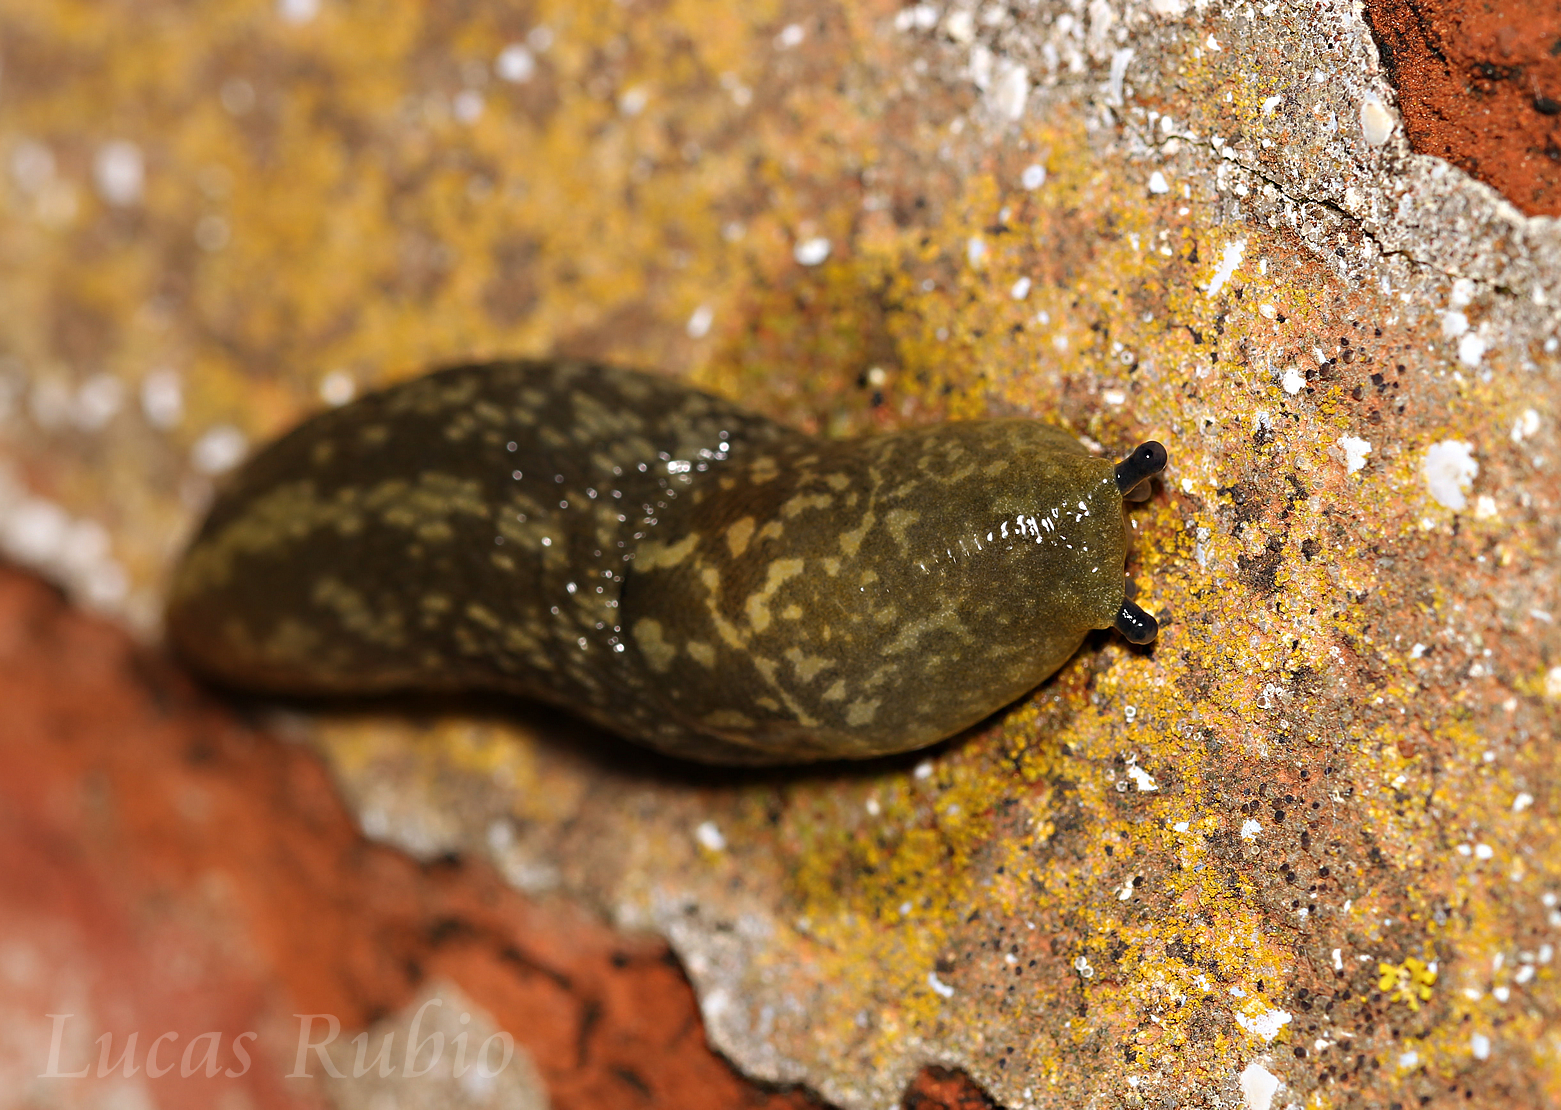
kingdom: Animalia
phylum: Mollusca
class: Gastropoda
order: Stylommatophora
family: Limacidae
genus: Limacus
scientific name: Limacus flavus
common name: Yellow gardenslug
